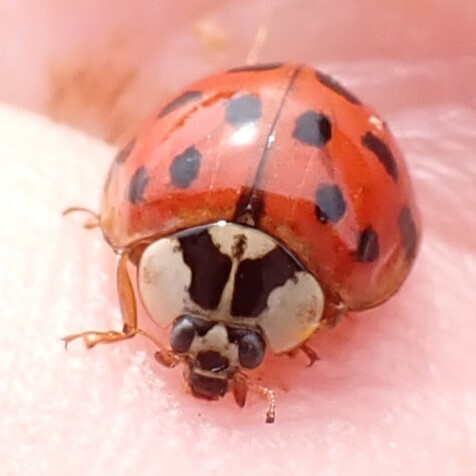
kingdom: Animalia
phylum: Arthropoda
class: Insecta
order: Coleoptera
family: Coccinellidae
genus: Harmonia
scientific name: Harmonia axyridis
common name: Harlequin ladybird
